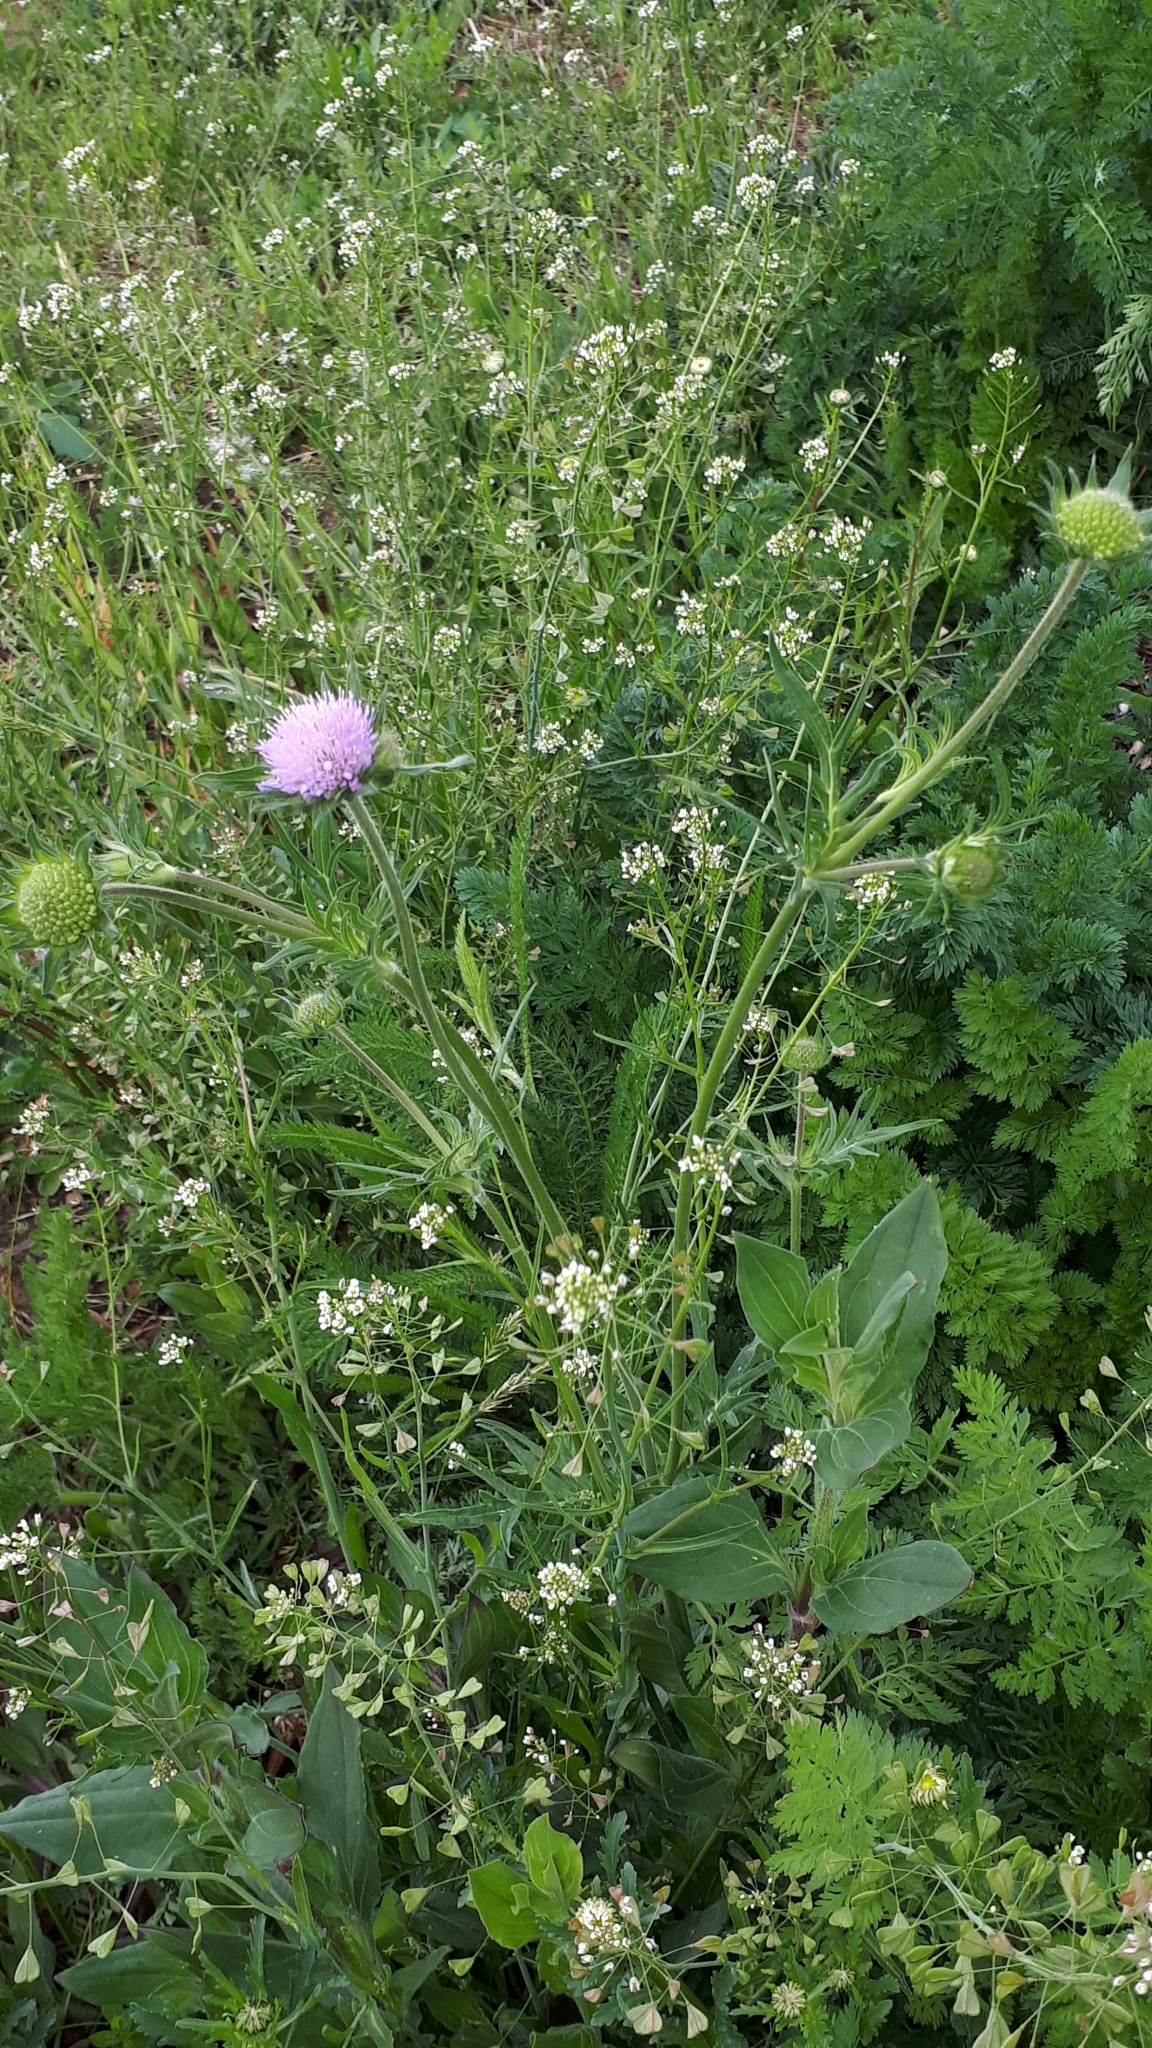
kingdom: Plantae
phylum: Tracheophyta
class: Magnoliopsida
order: Dipsacales
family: Caprifoliaceae
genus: Knautia
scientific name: Knautia arvensis
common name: Field scabiosa
